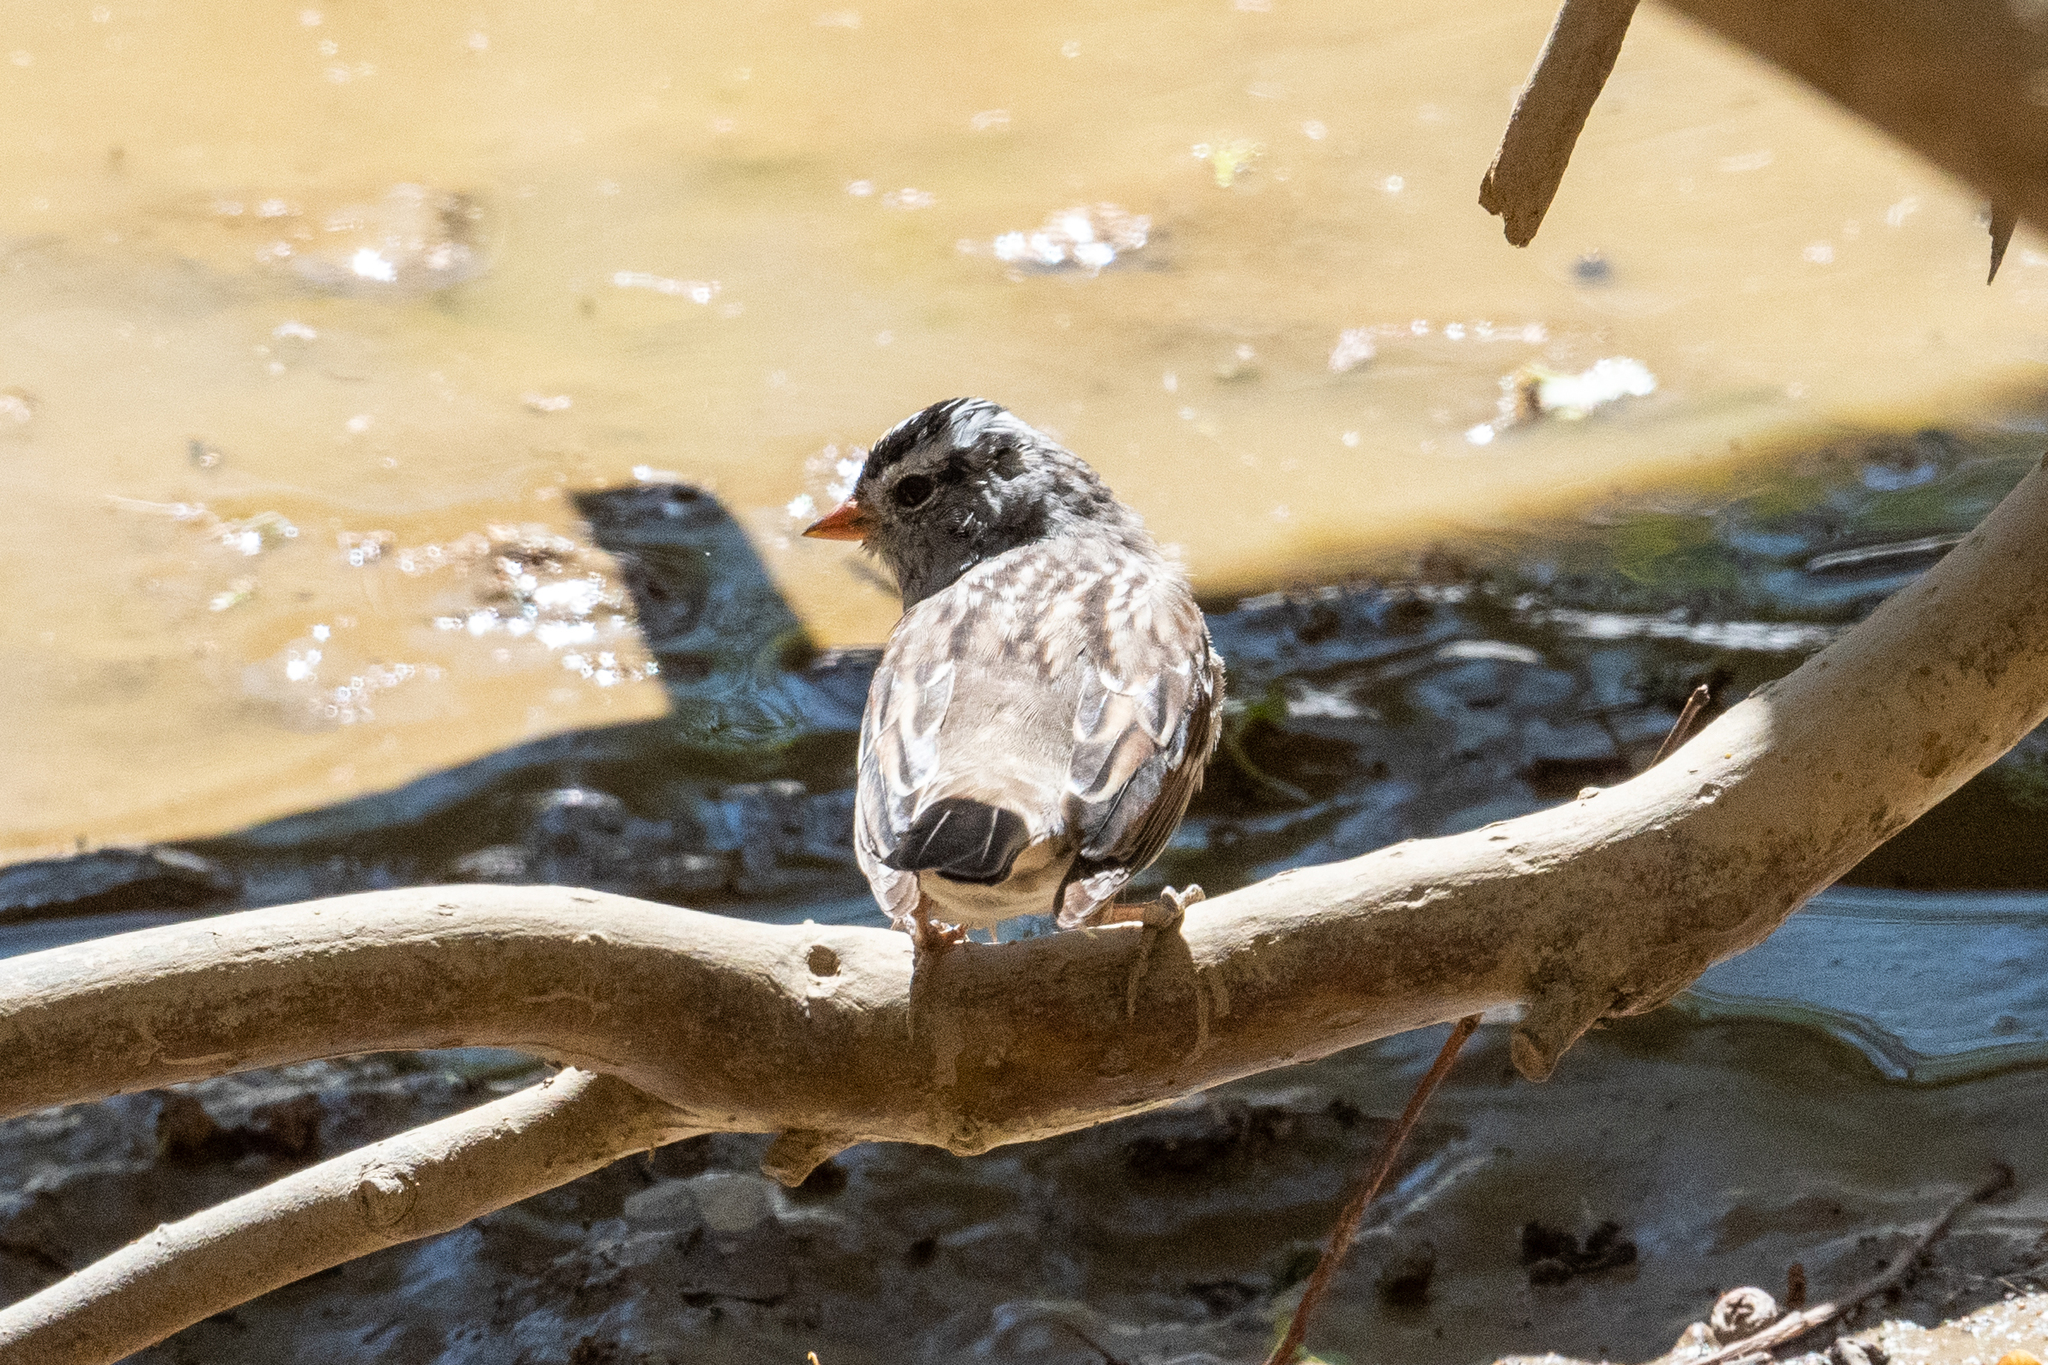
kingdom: Animalia
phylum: Chordata
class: Aves
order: Passeriformes
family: Passerellidae
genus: Zonotrichia
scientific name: Zonotrichia leucophrys
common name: White-crowned sparrow
